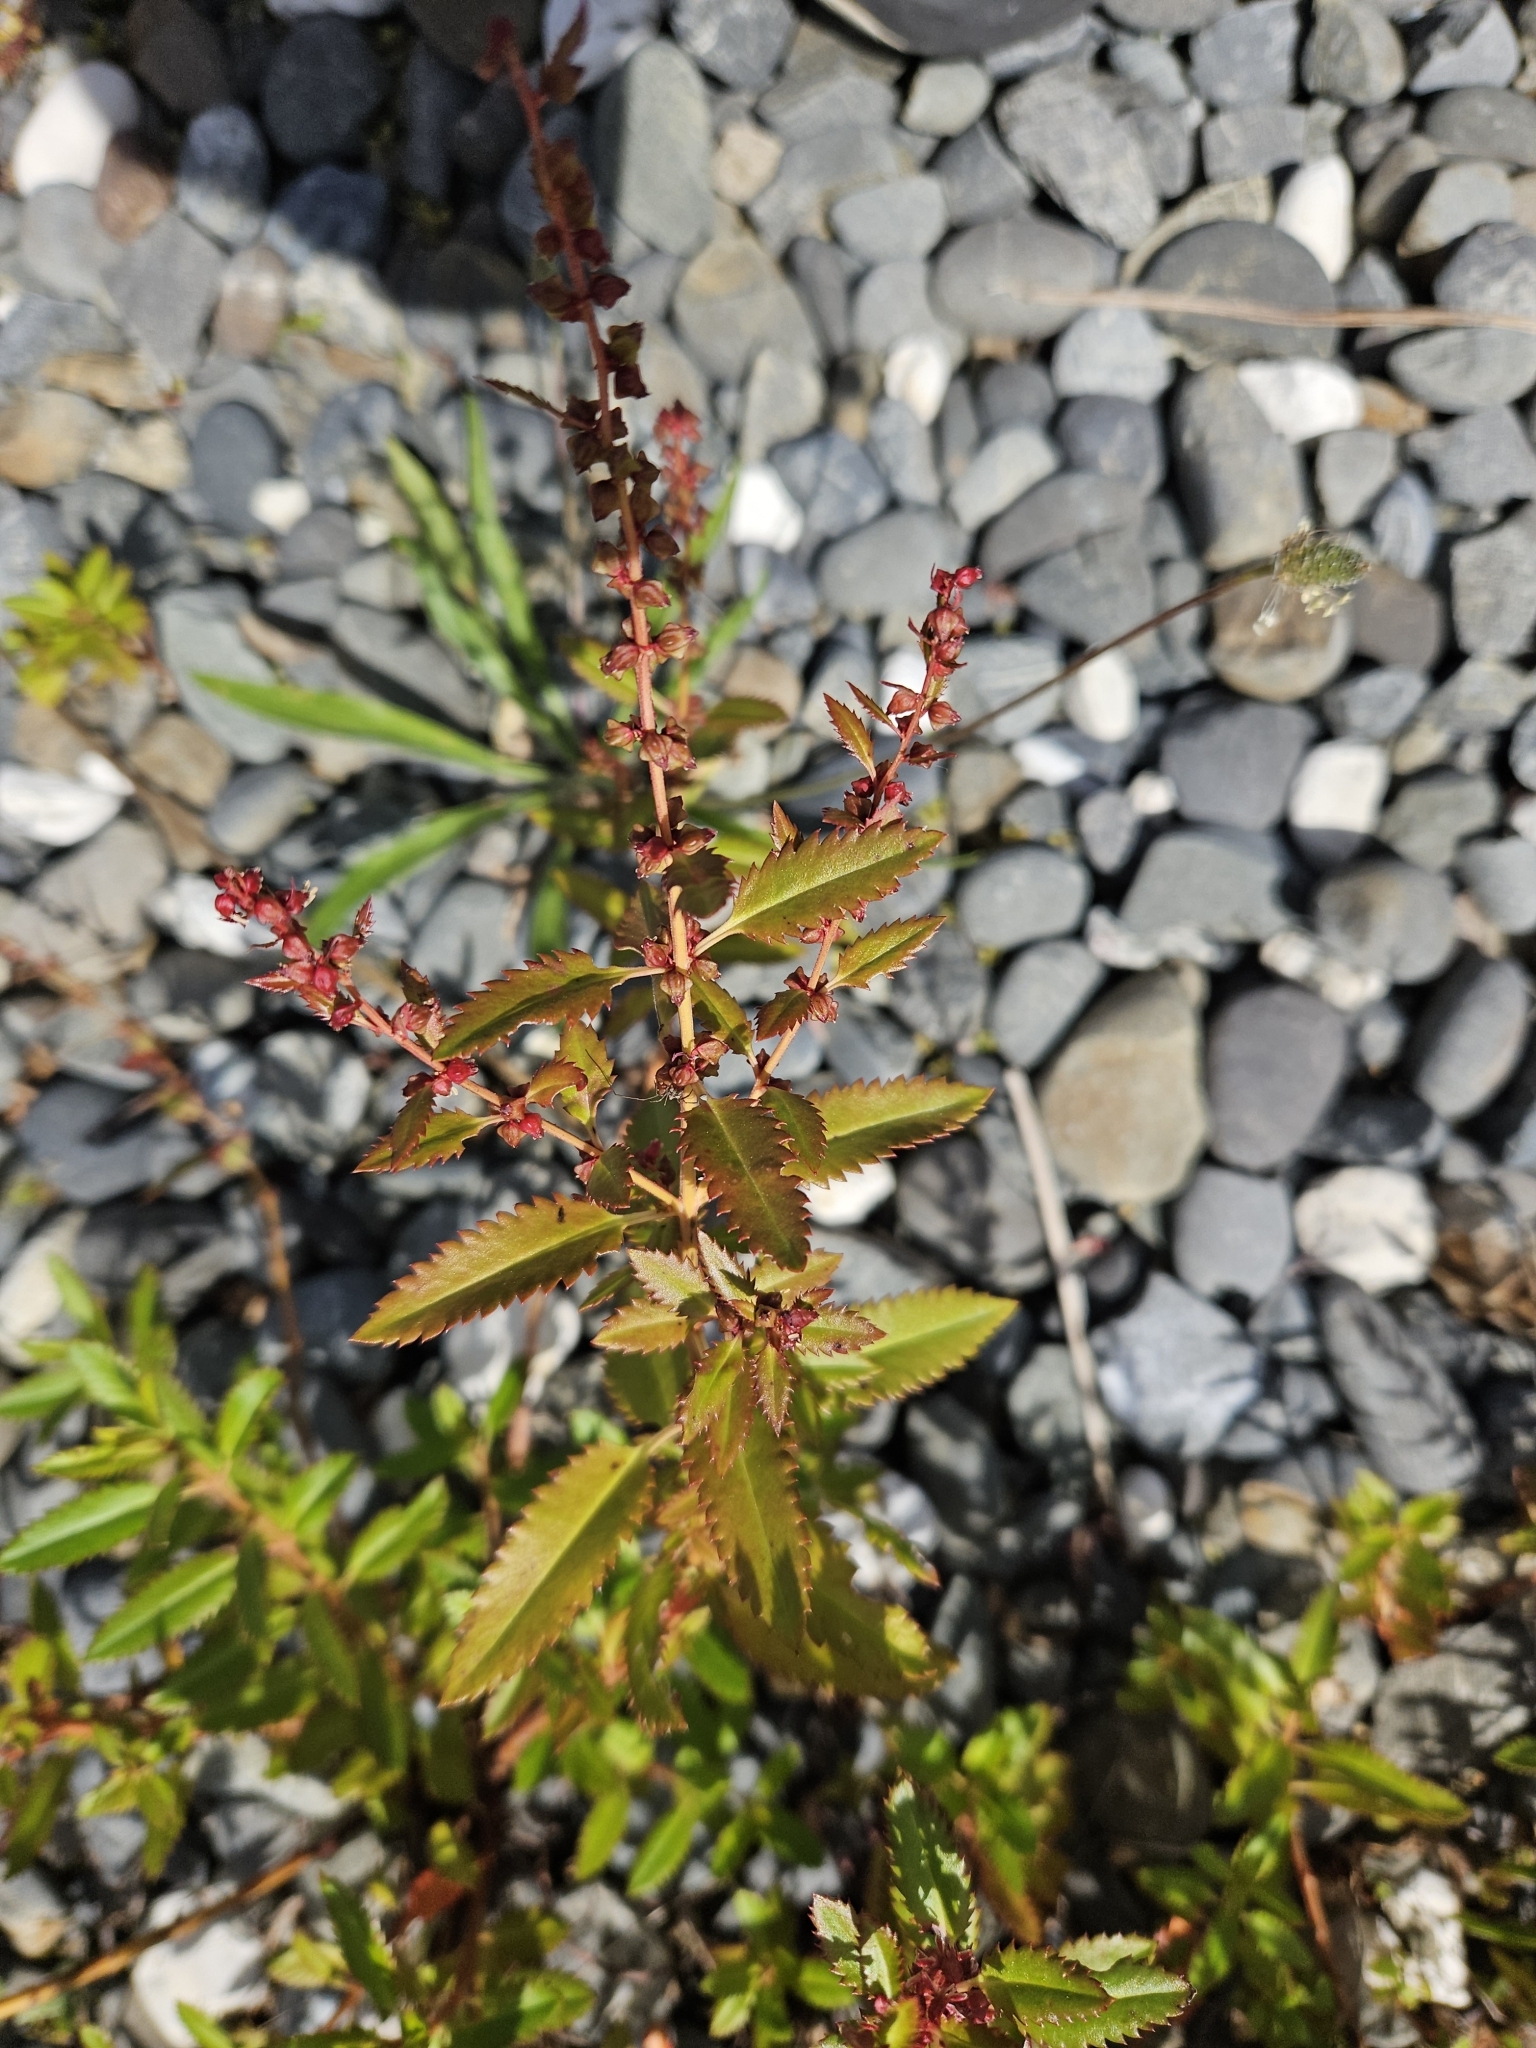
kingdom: Plantae
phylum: Tracheophyta
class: Magnoliopsida
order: Saxifragales
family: Haloragaceae
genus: Haloragis
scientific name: Haloragis erecta
